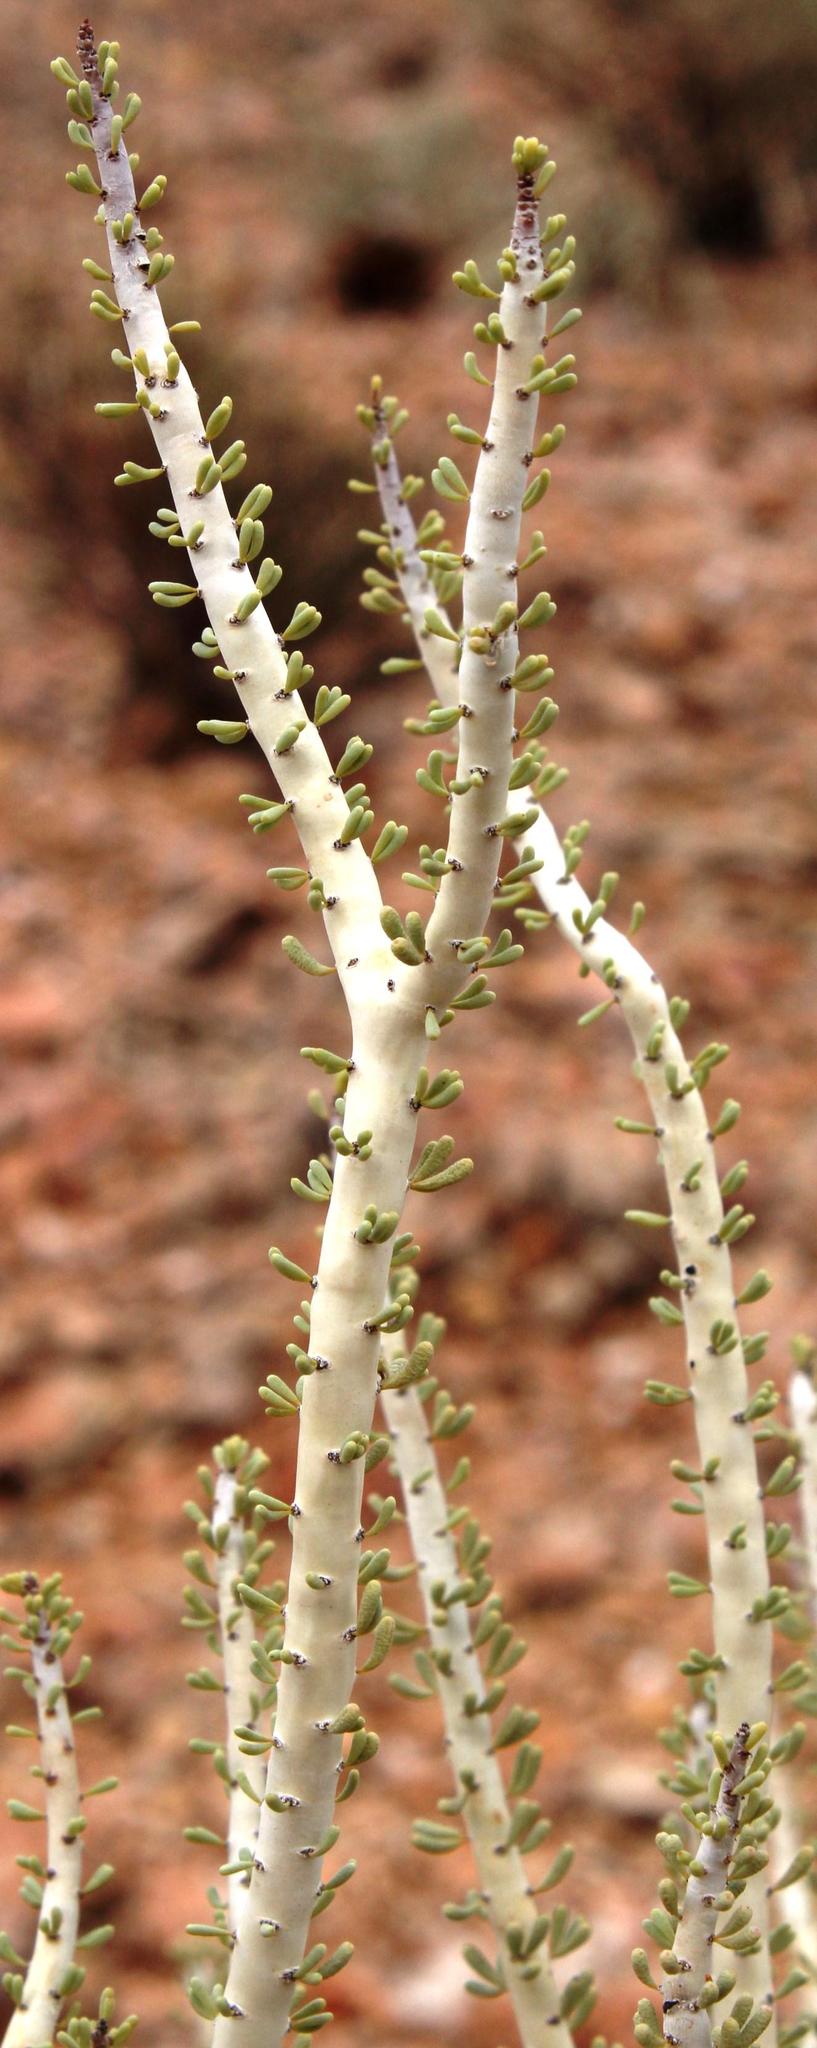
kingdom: Plantae
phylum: Tracheophyta
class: Magnoliopsida
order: Caryophyllales
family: Didiereaceae
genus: Portulacaria
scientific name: Portulacaria namaquensis
